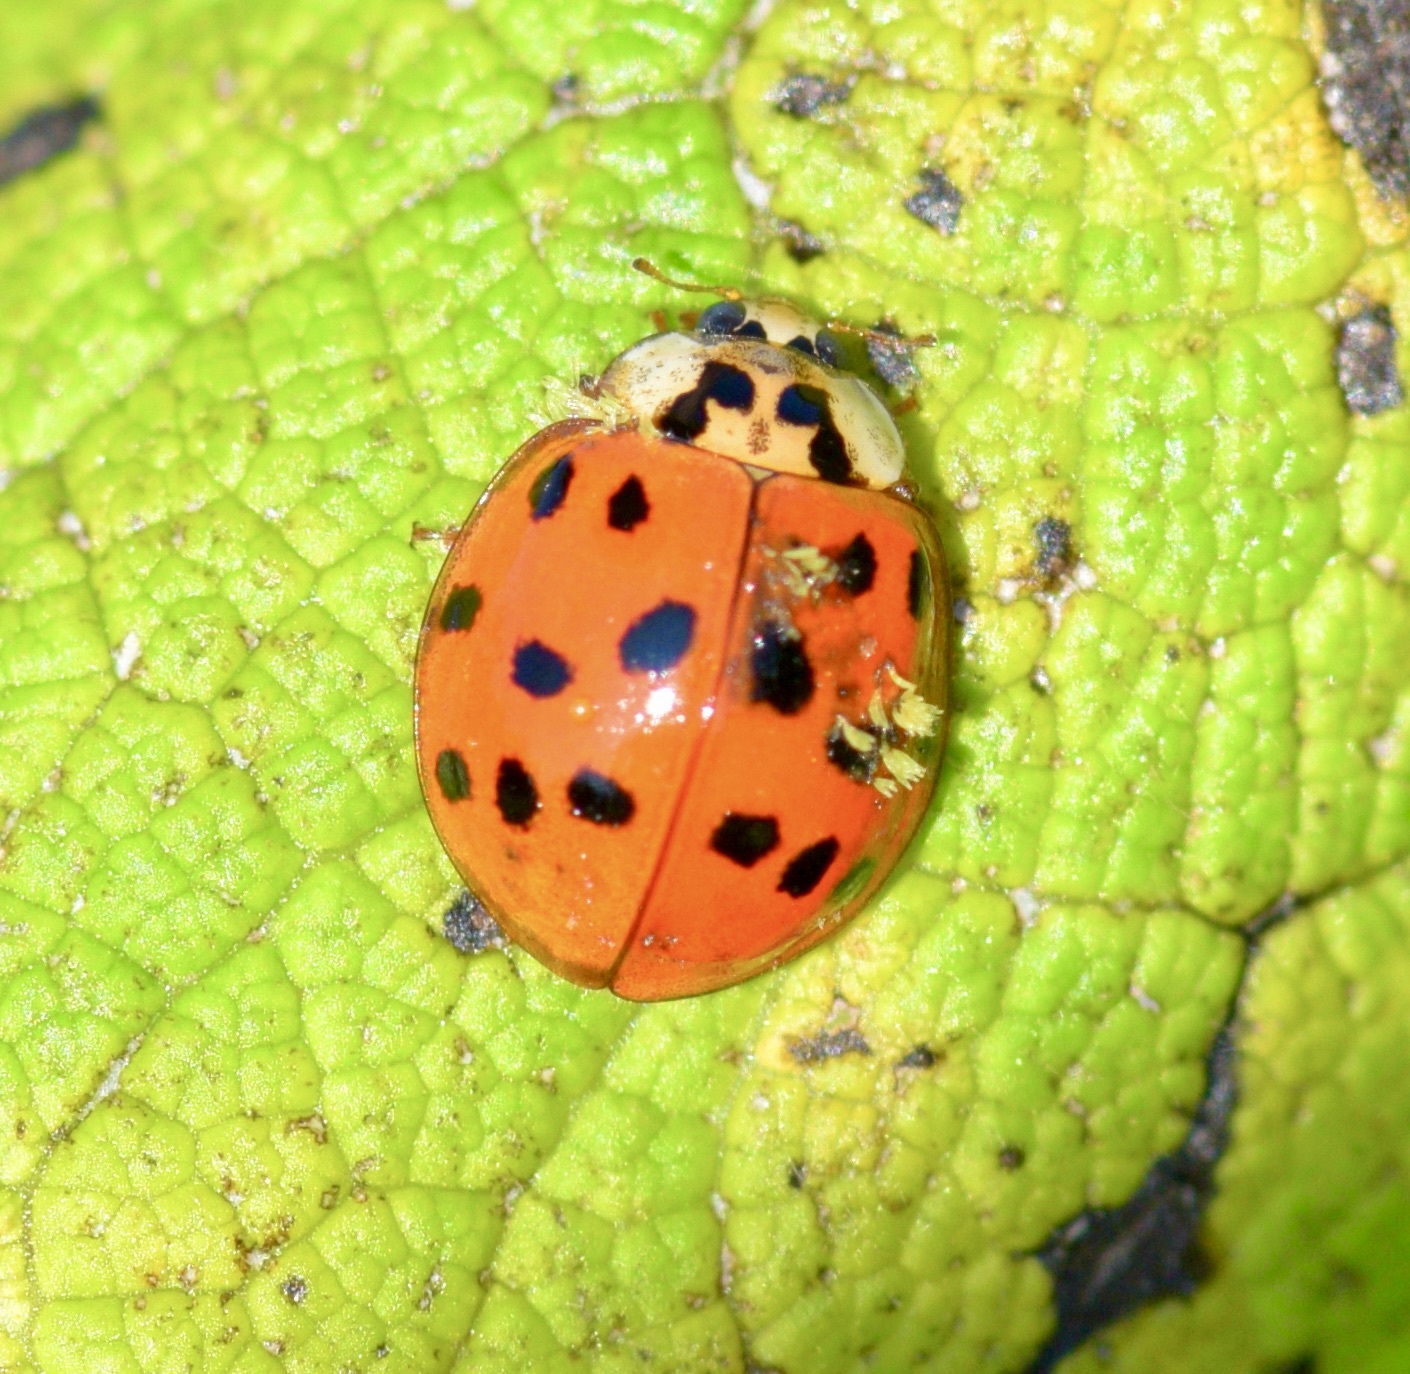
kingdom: Animalia
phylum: Arthropoda
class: Insecta
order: Coleoptera
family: Coccinellidae
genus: Harmonia
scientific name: Harmonia axyridis
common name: Harlequin ladybird
